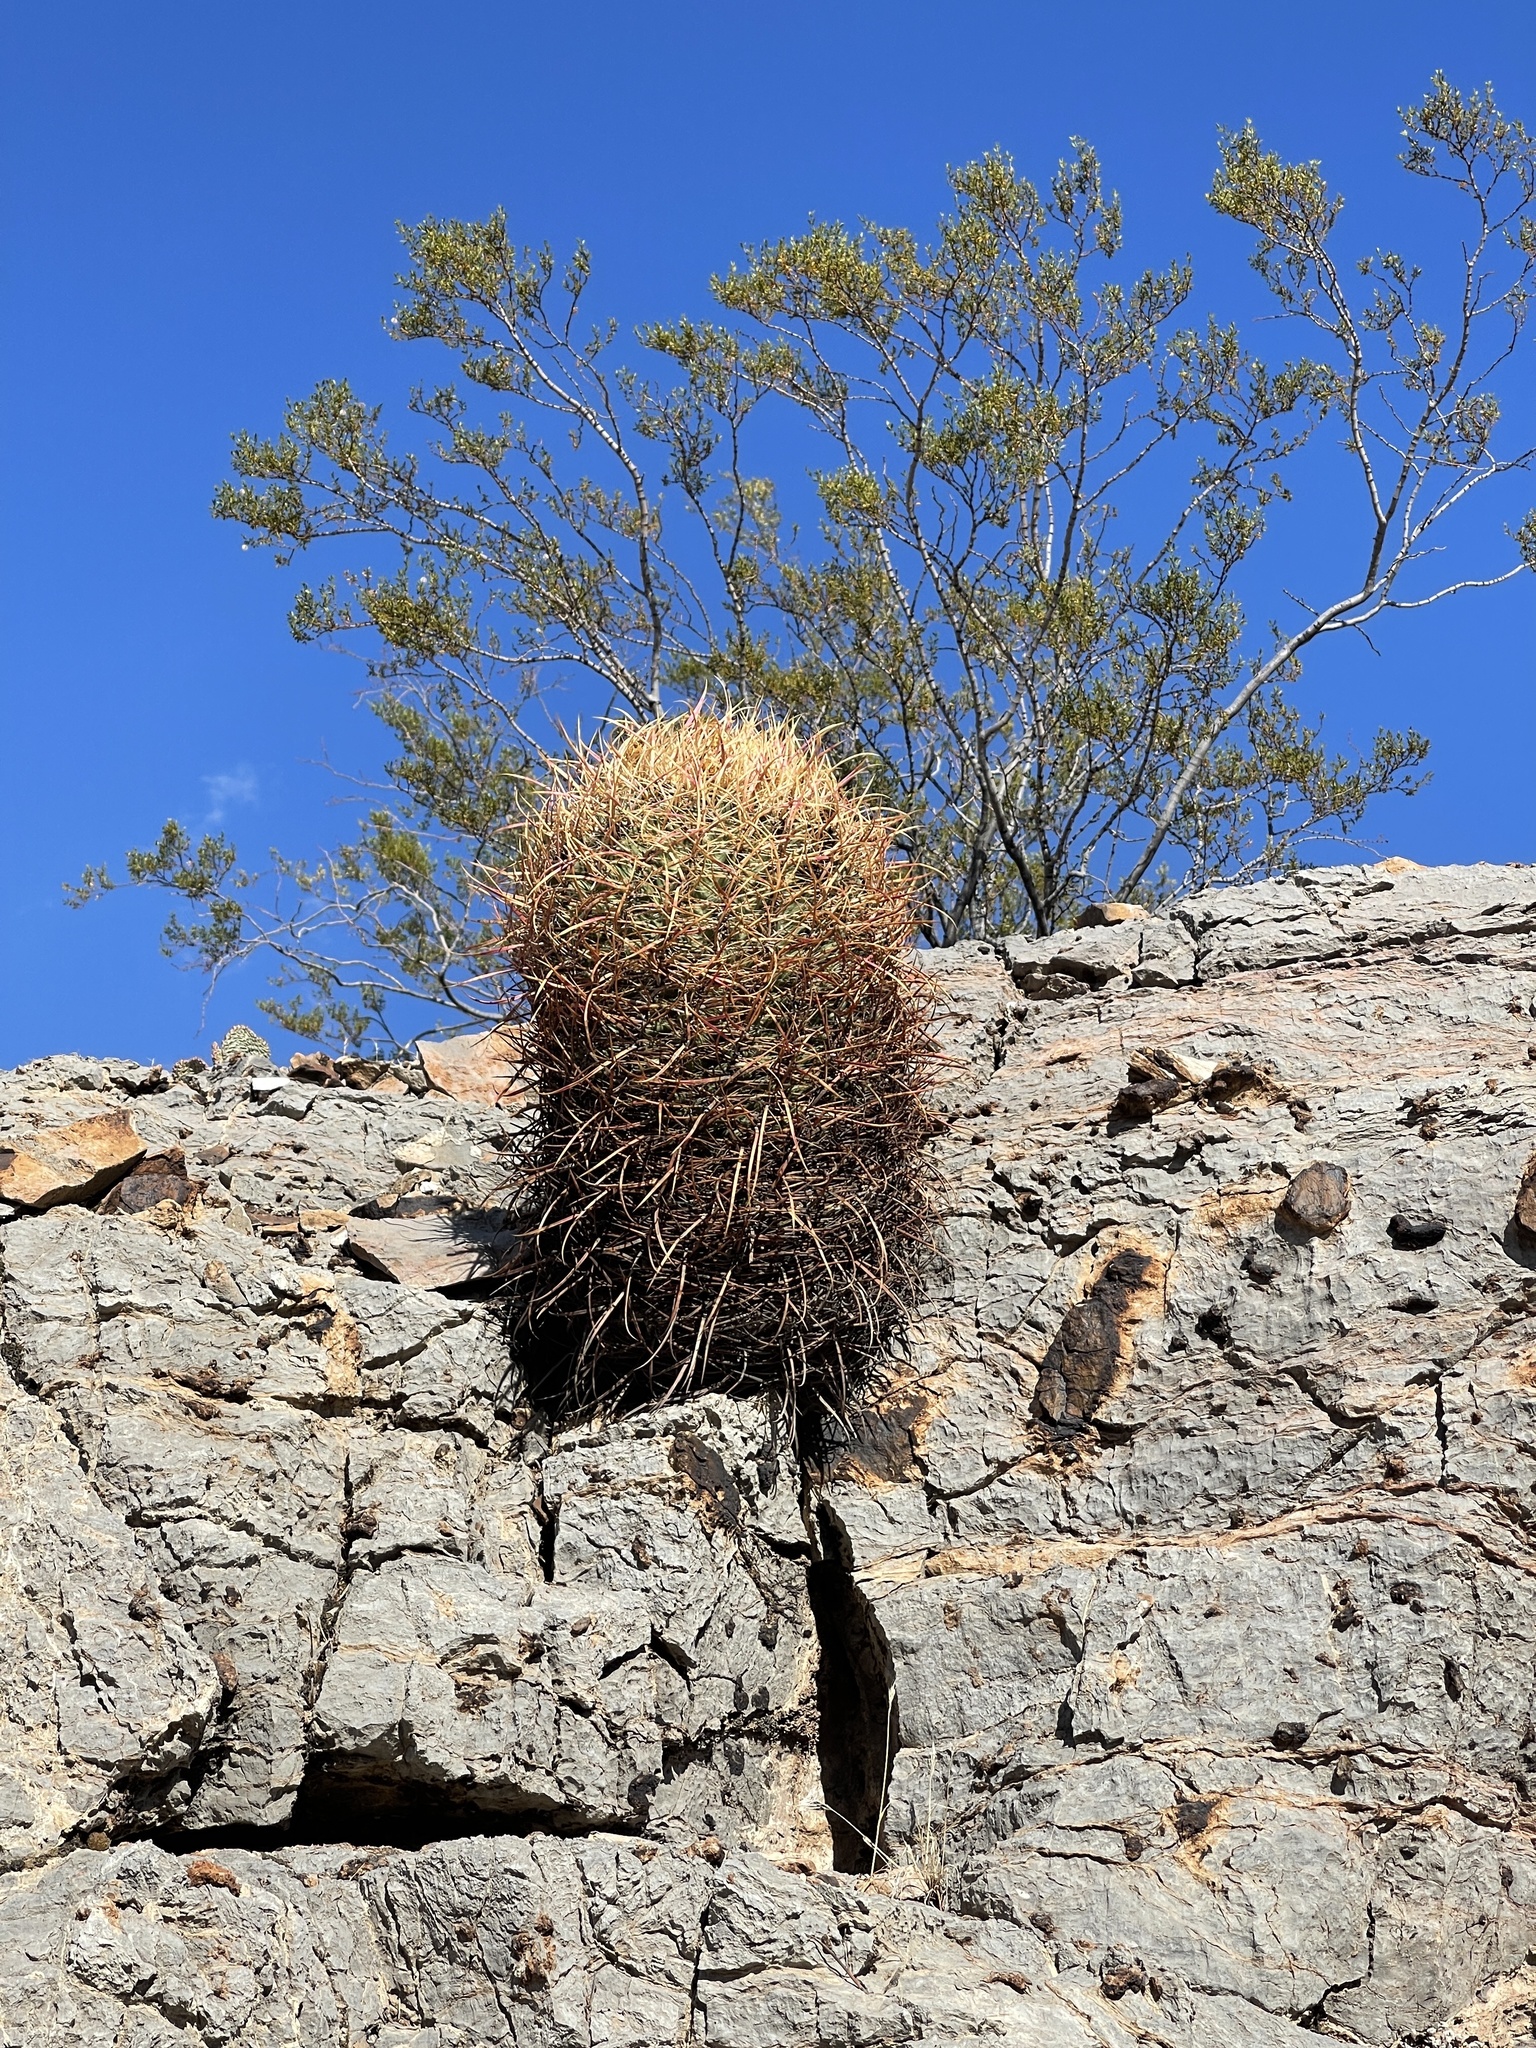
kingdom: Plantae
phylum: Tracheophyta
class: Magnoliopsida
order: Caryophyllales
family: Cactaceae
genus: Ferocactus
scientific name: Ferocactus cylindraceus
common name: California barrel cactus
